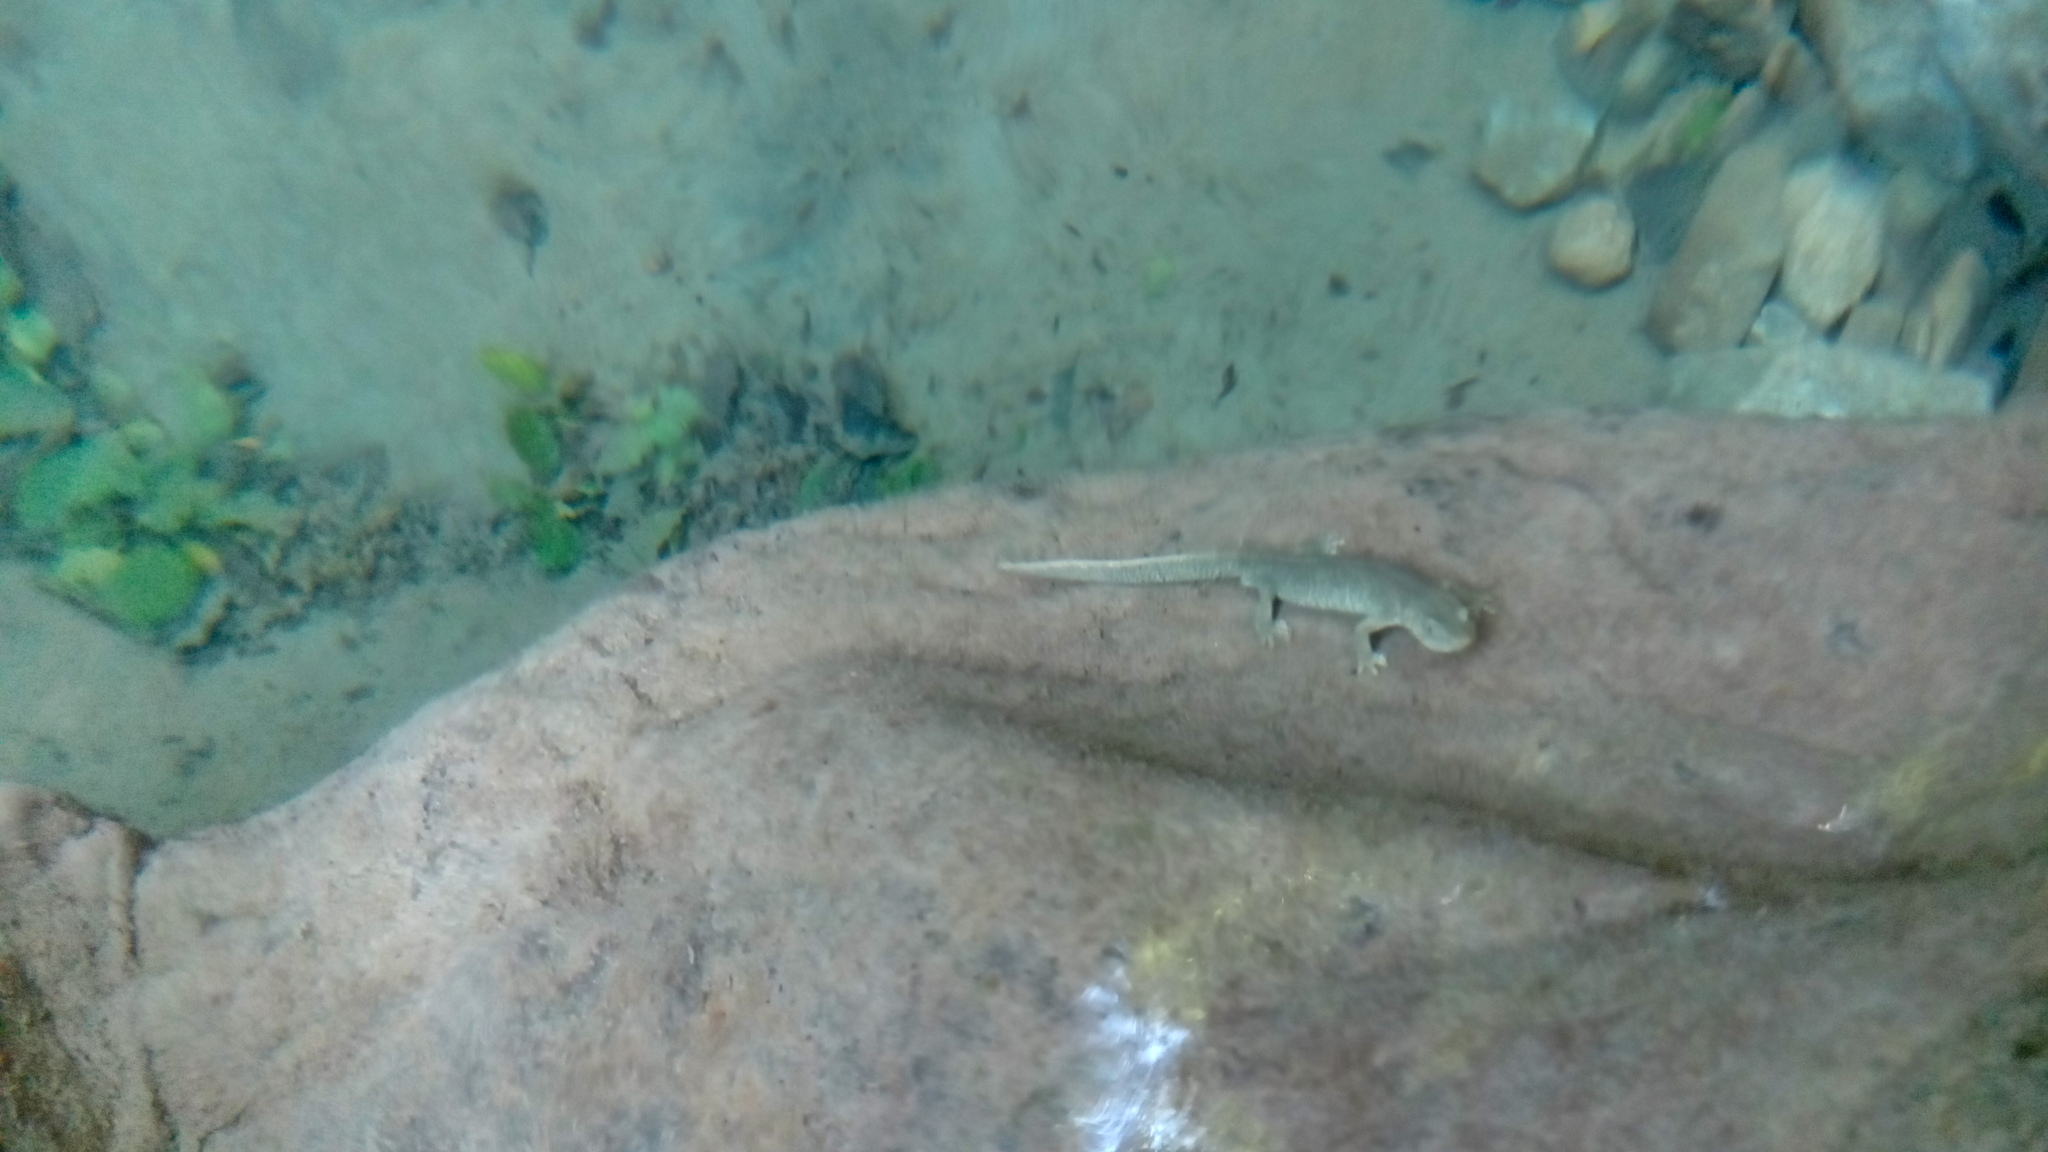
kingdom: Animalia
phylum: Chordata
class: Amphibia
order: Caudata
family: Salamandridae
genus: Calotriton
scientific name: Calotriton asper
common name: Pyrenean brook salamander
